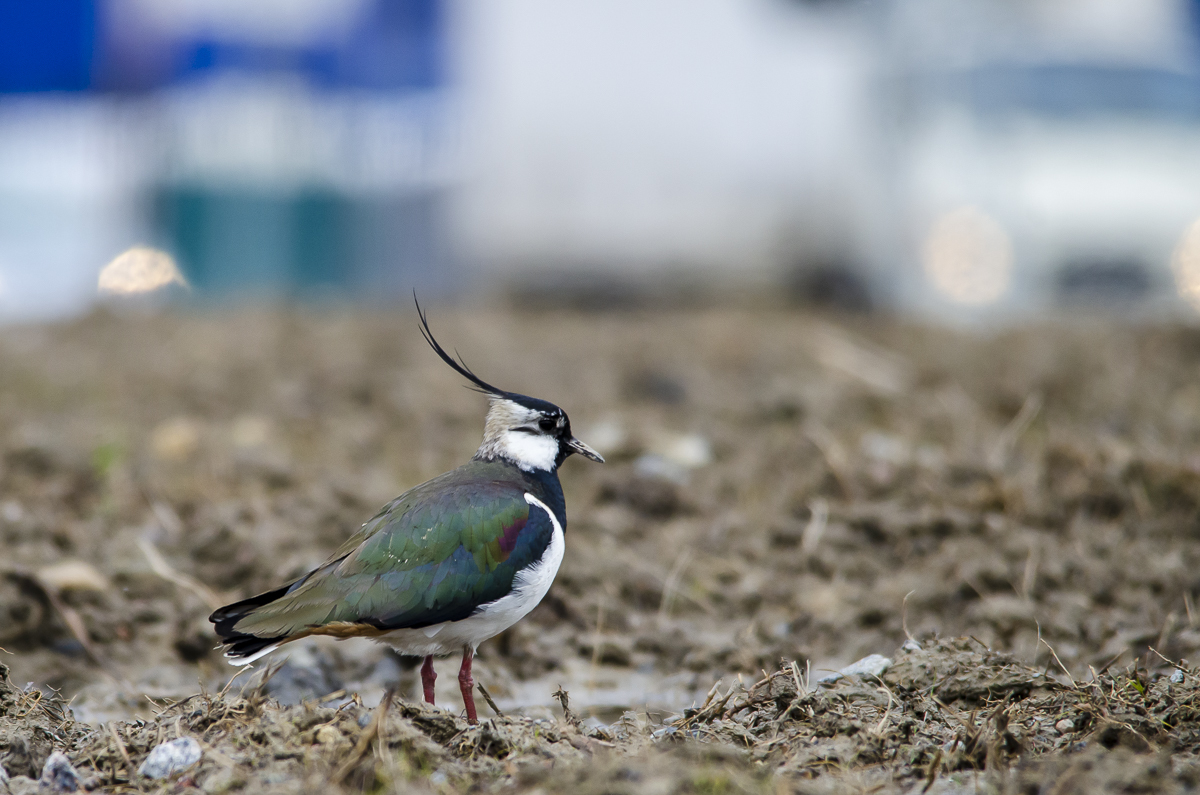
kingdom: Animalia
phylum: Chordata
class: Aves
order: Charadriiformes
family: Charadriidae
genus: Vanellus
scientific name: Vanellus vanellus
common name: Northern lapwing
